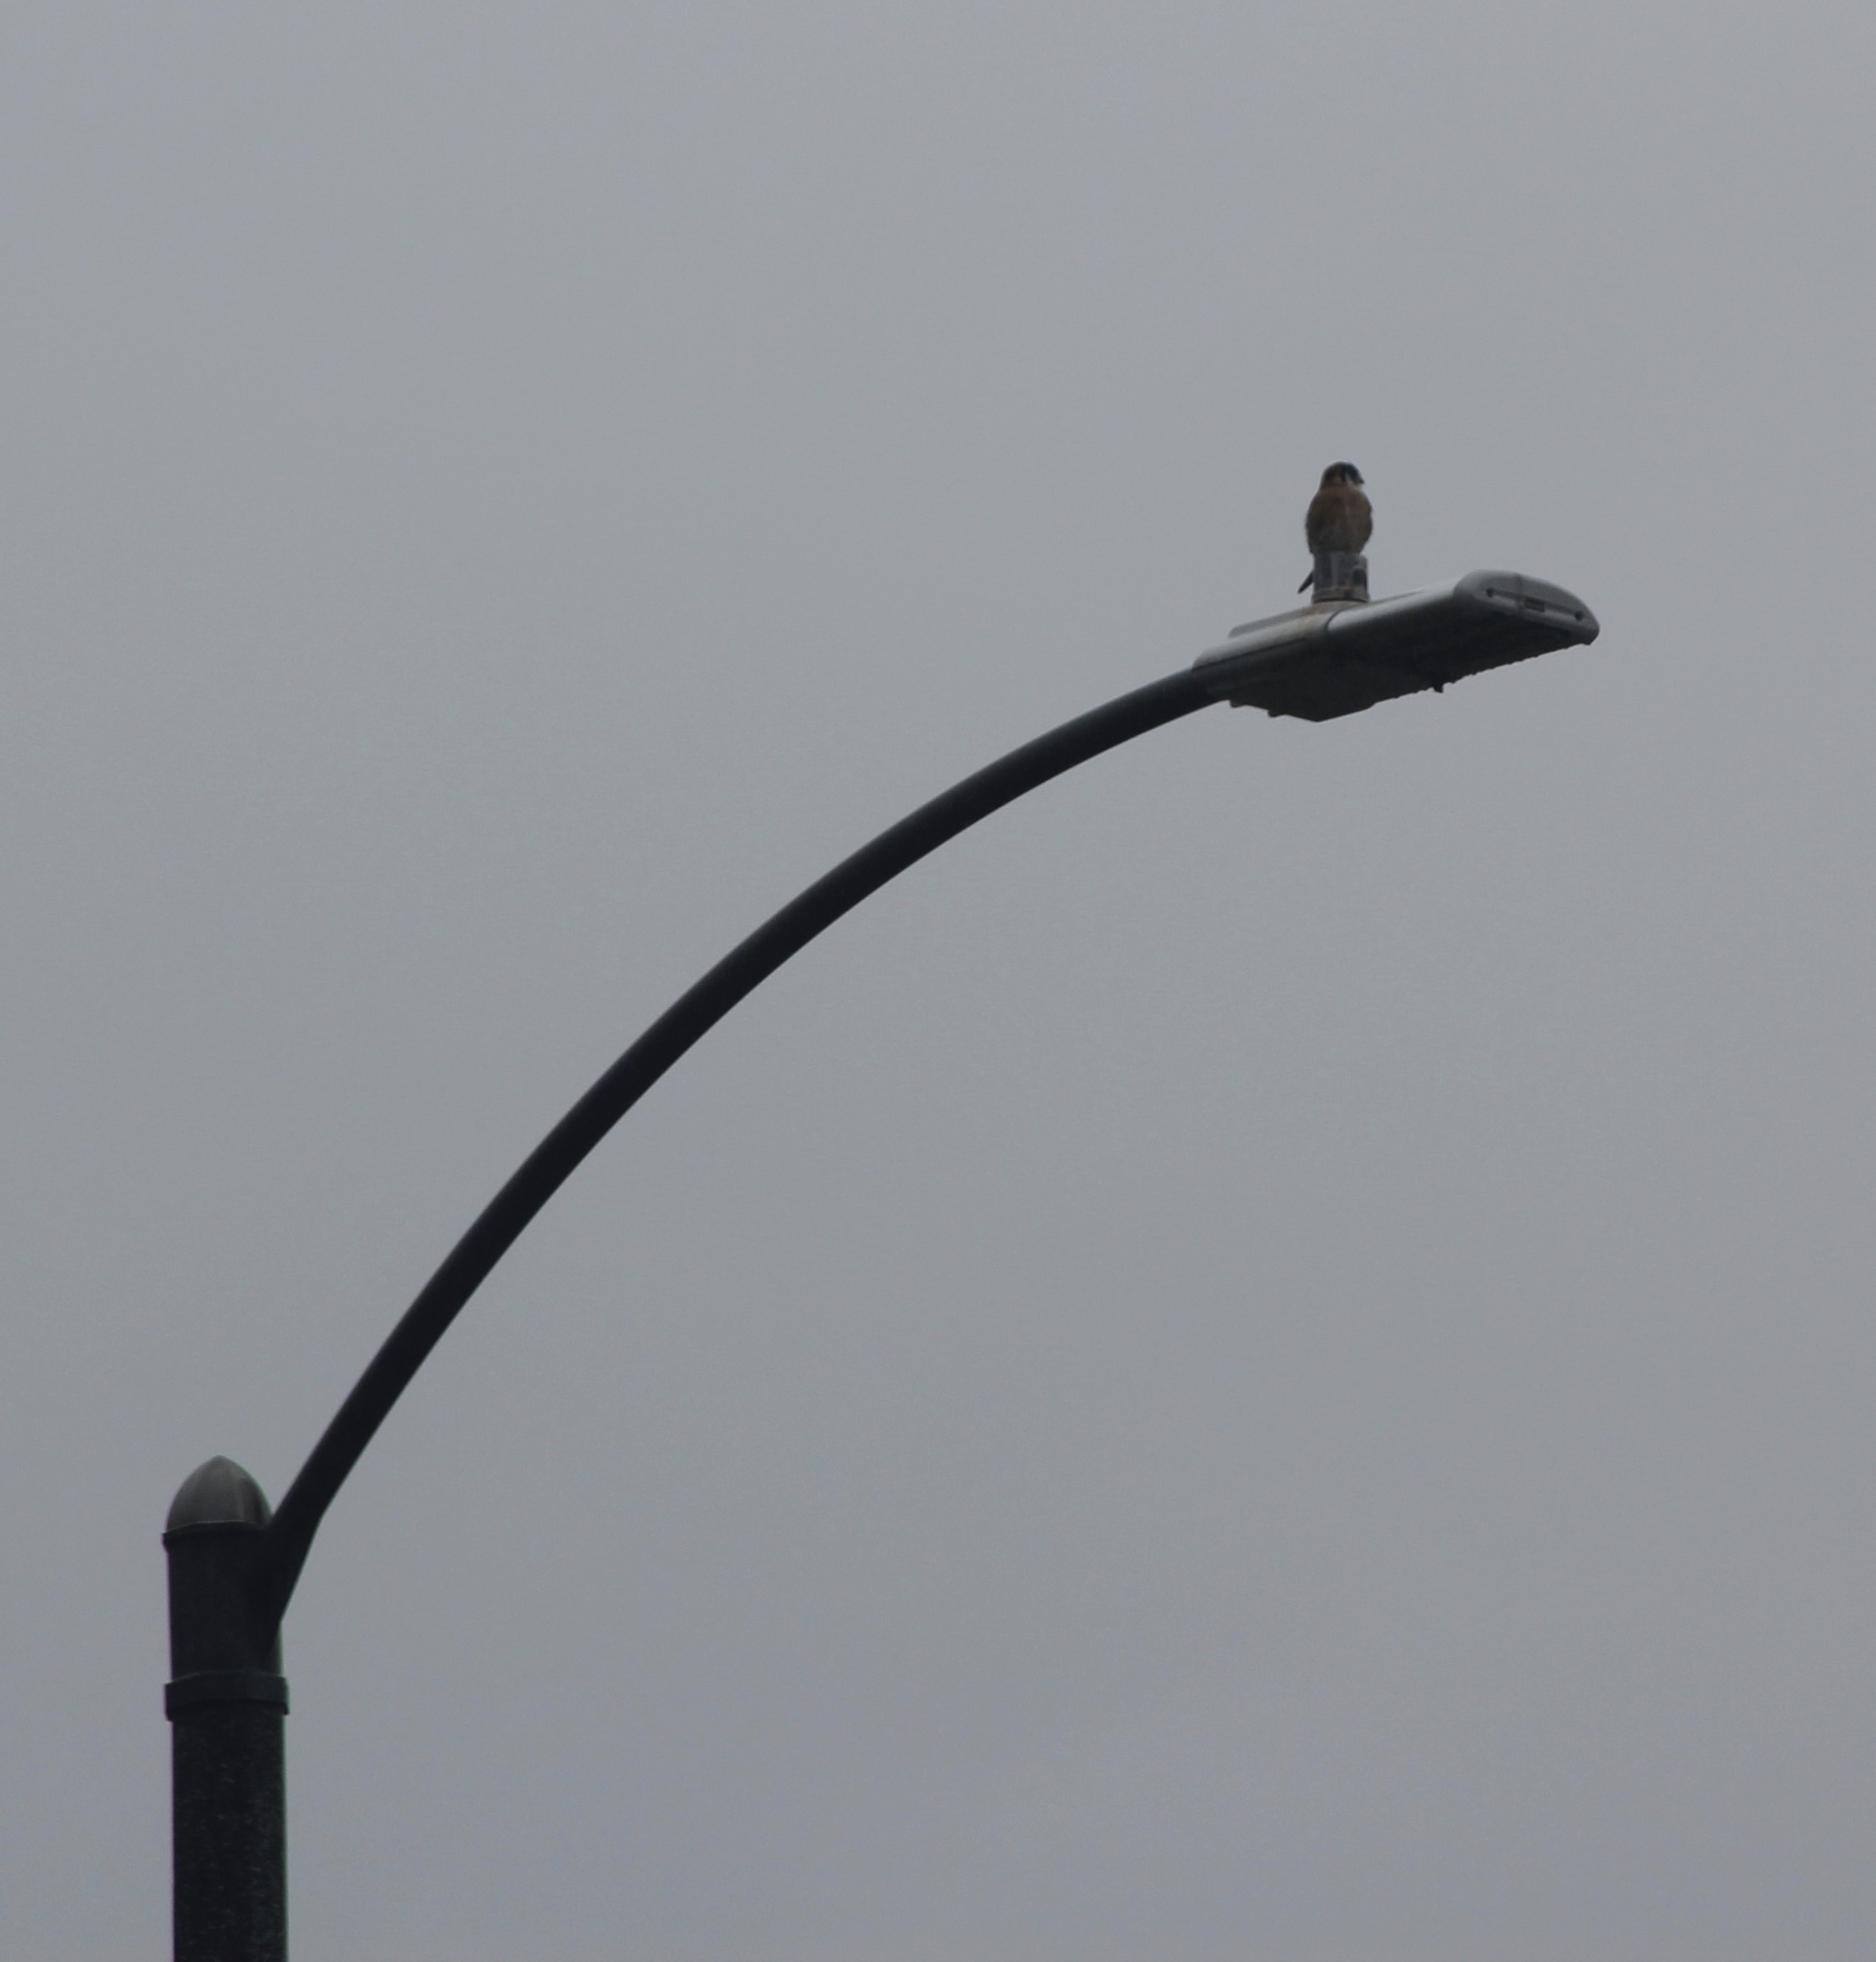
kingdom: Animalia
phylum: Chordata
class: Aves
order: Falconiformes
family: Falconidae
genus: Falco
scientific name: Falco sparverius
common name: American kestrel
